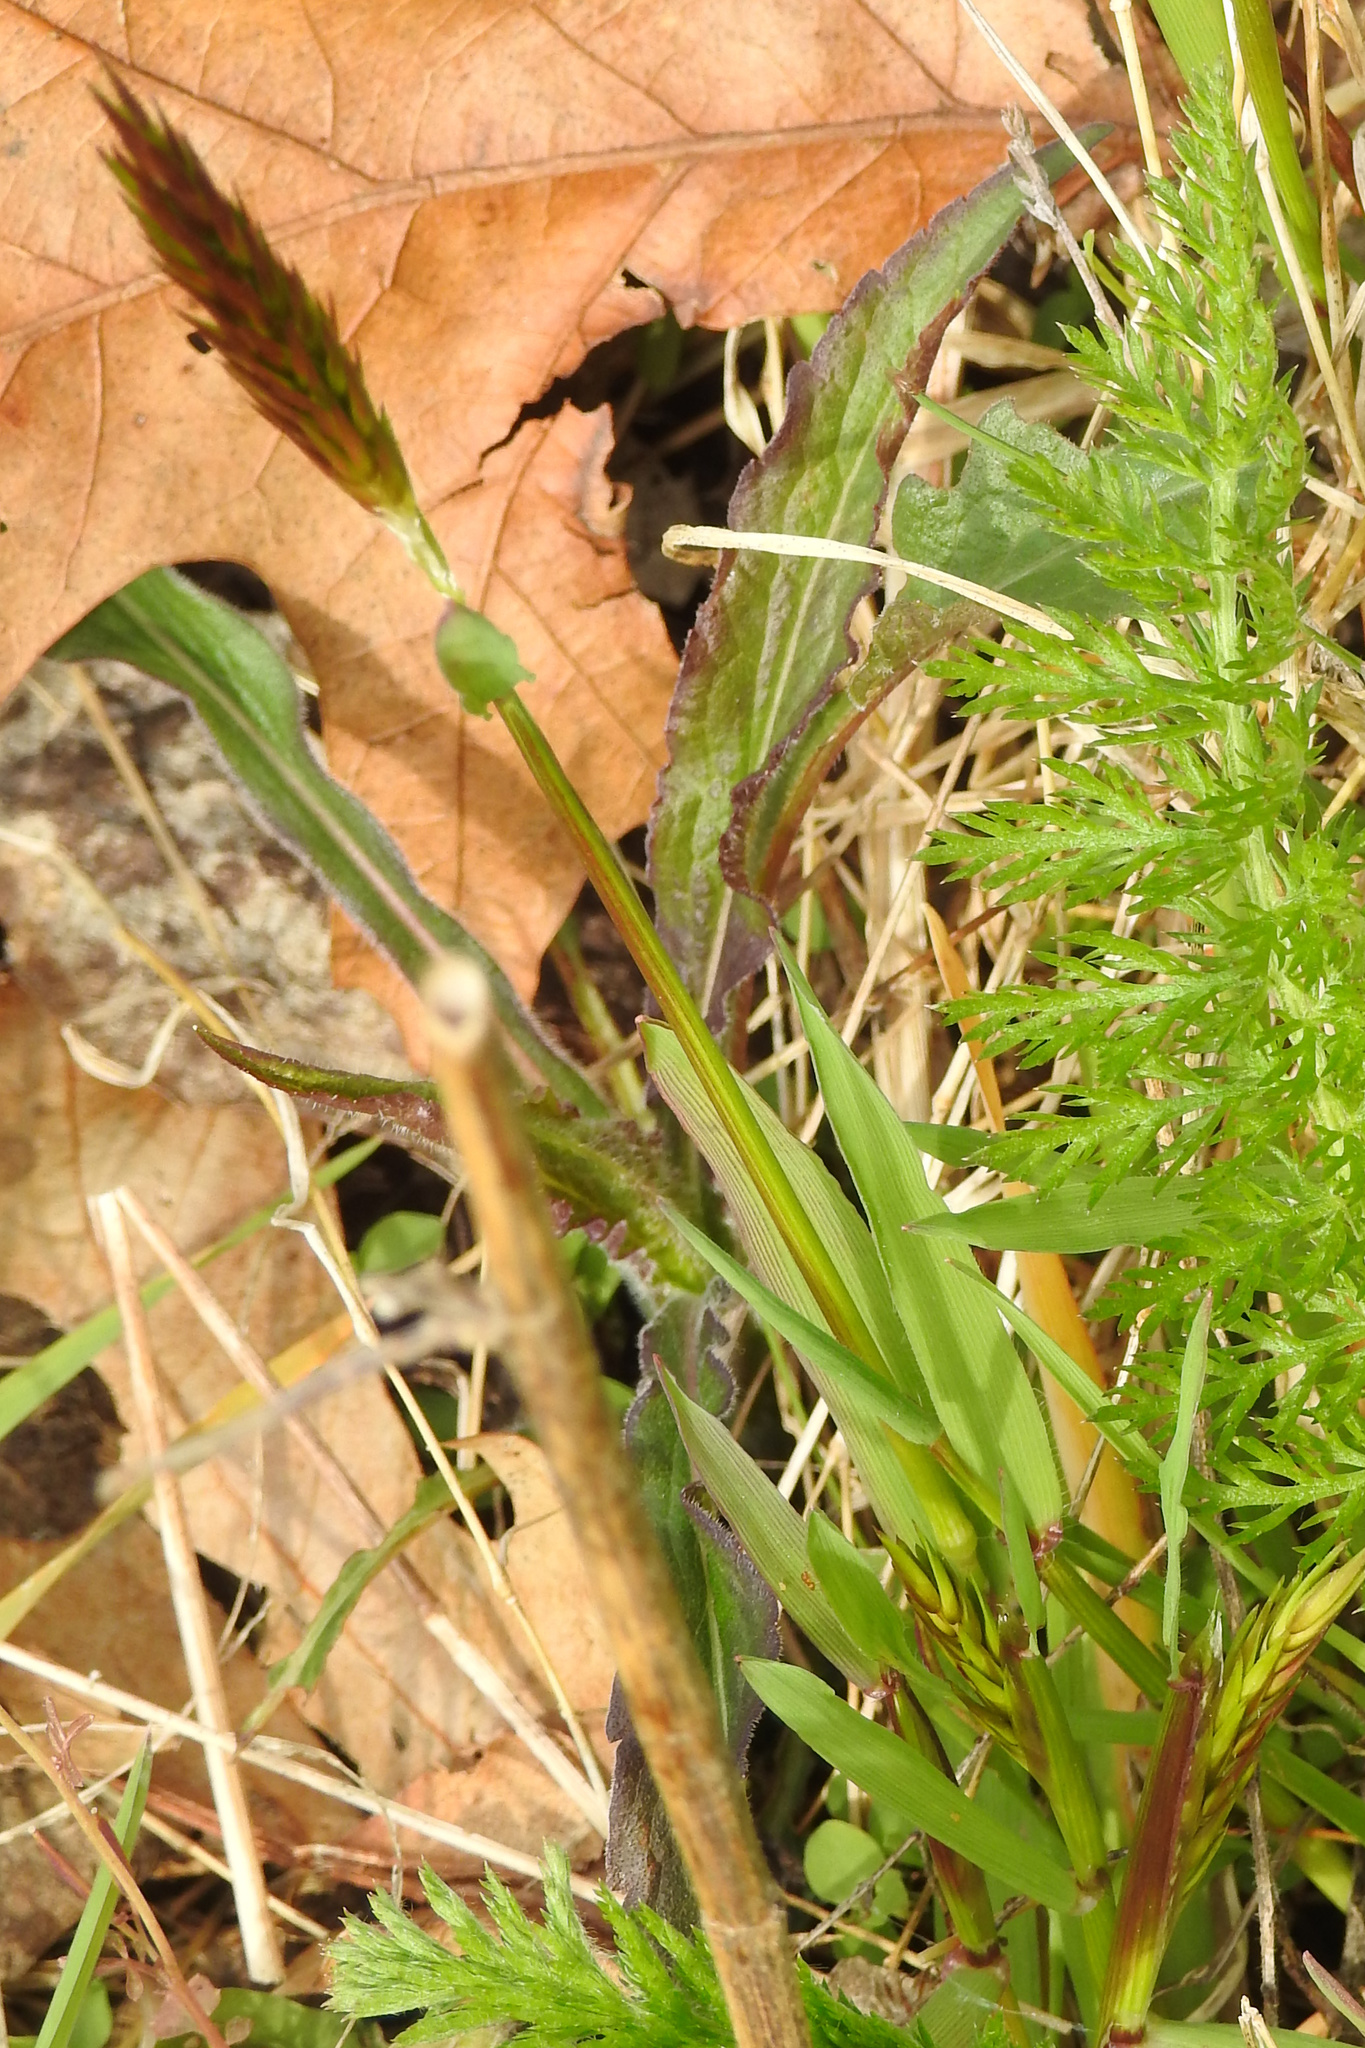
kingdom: Plantae
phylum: Tracheophyta
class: Liliopsida
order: Poales
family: Poaceae
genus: Anthoxanthum
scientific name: Anthoxanthum odoratum
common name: Sweet vernalgrass
